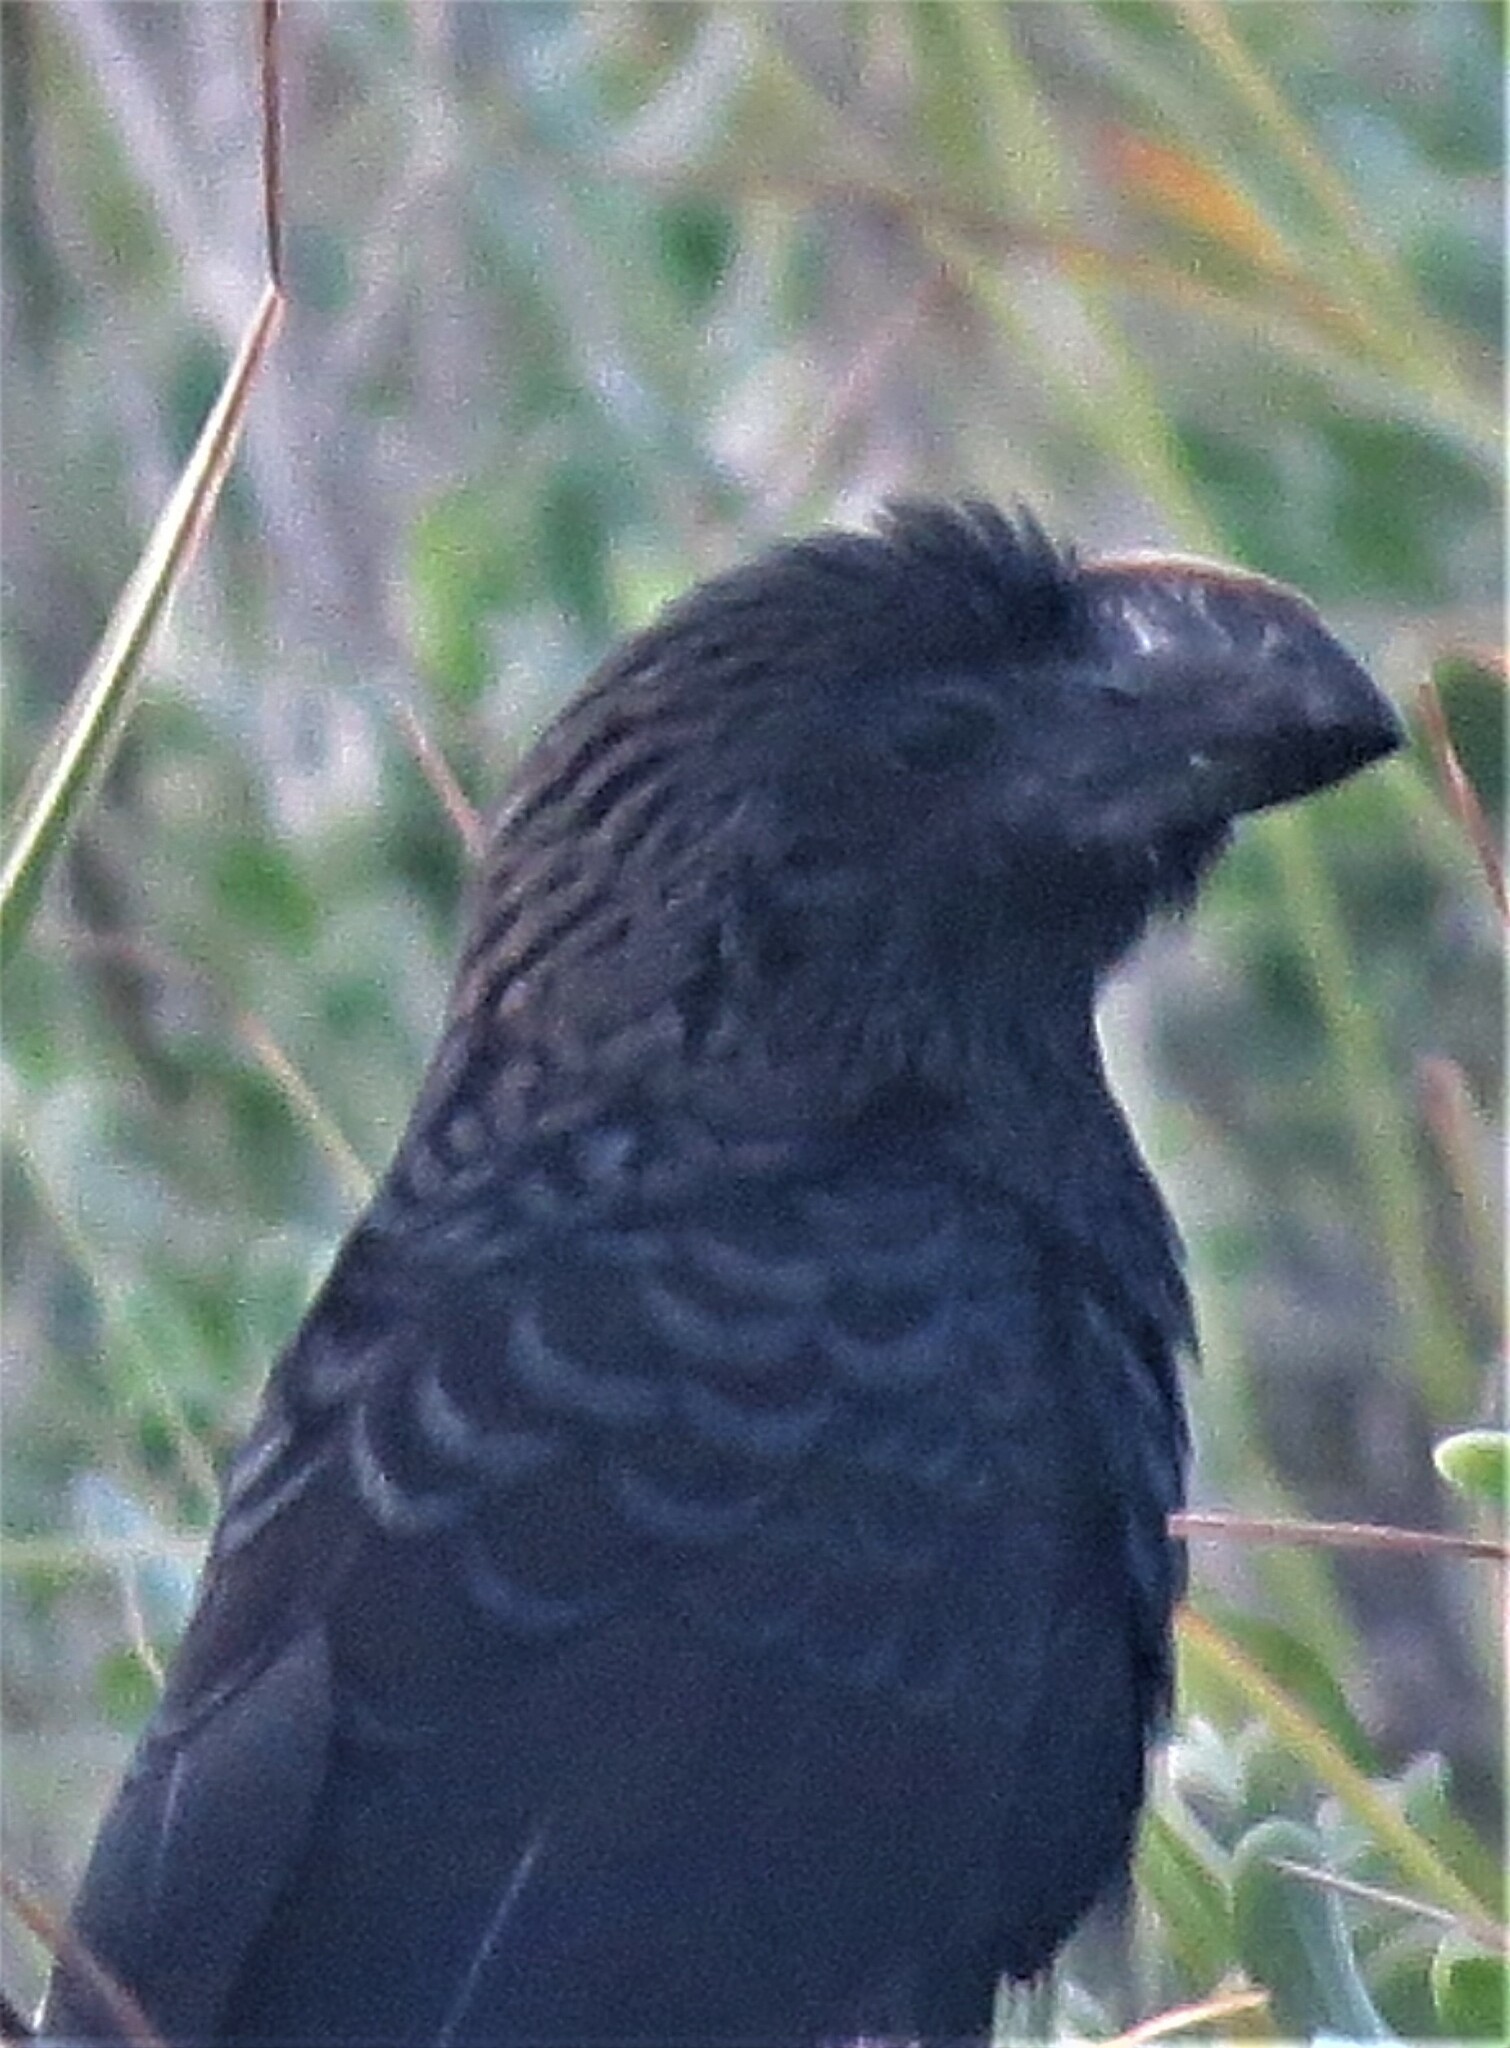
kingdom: Animalia
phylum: Chordata
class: Aves
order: Cuculiformes
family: Cuculidae
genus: Crotophaga
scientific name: Crotophaga ani
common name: Smooth-billed ani
